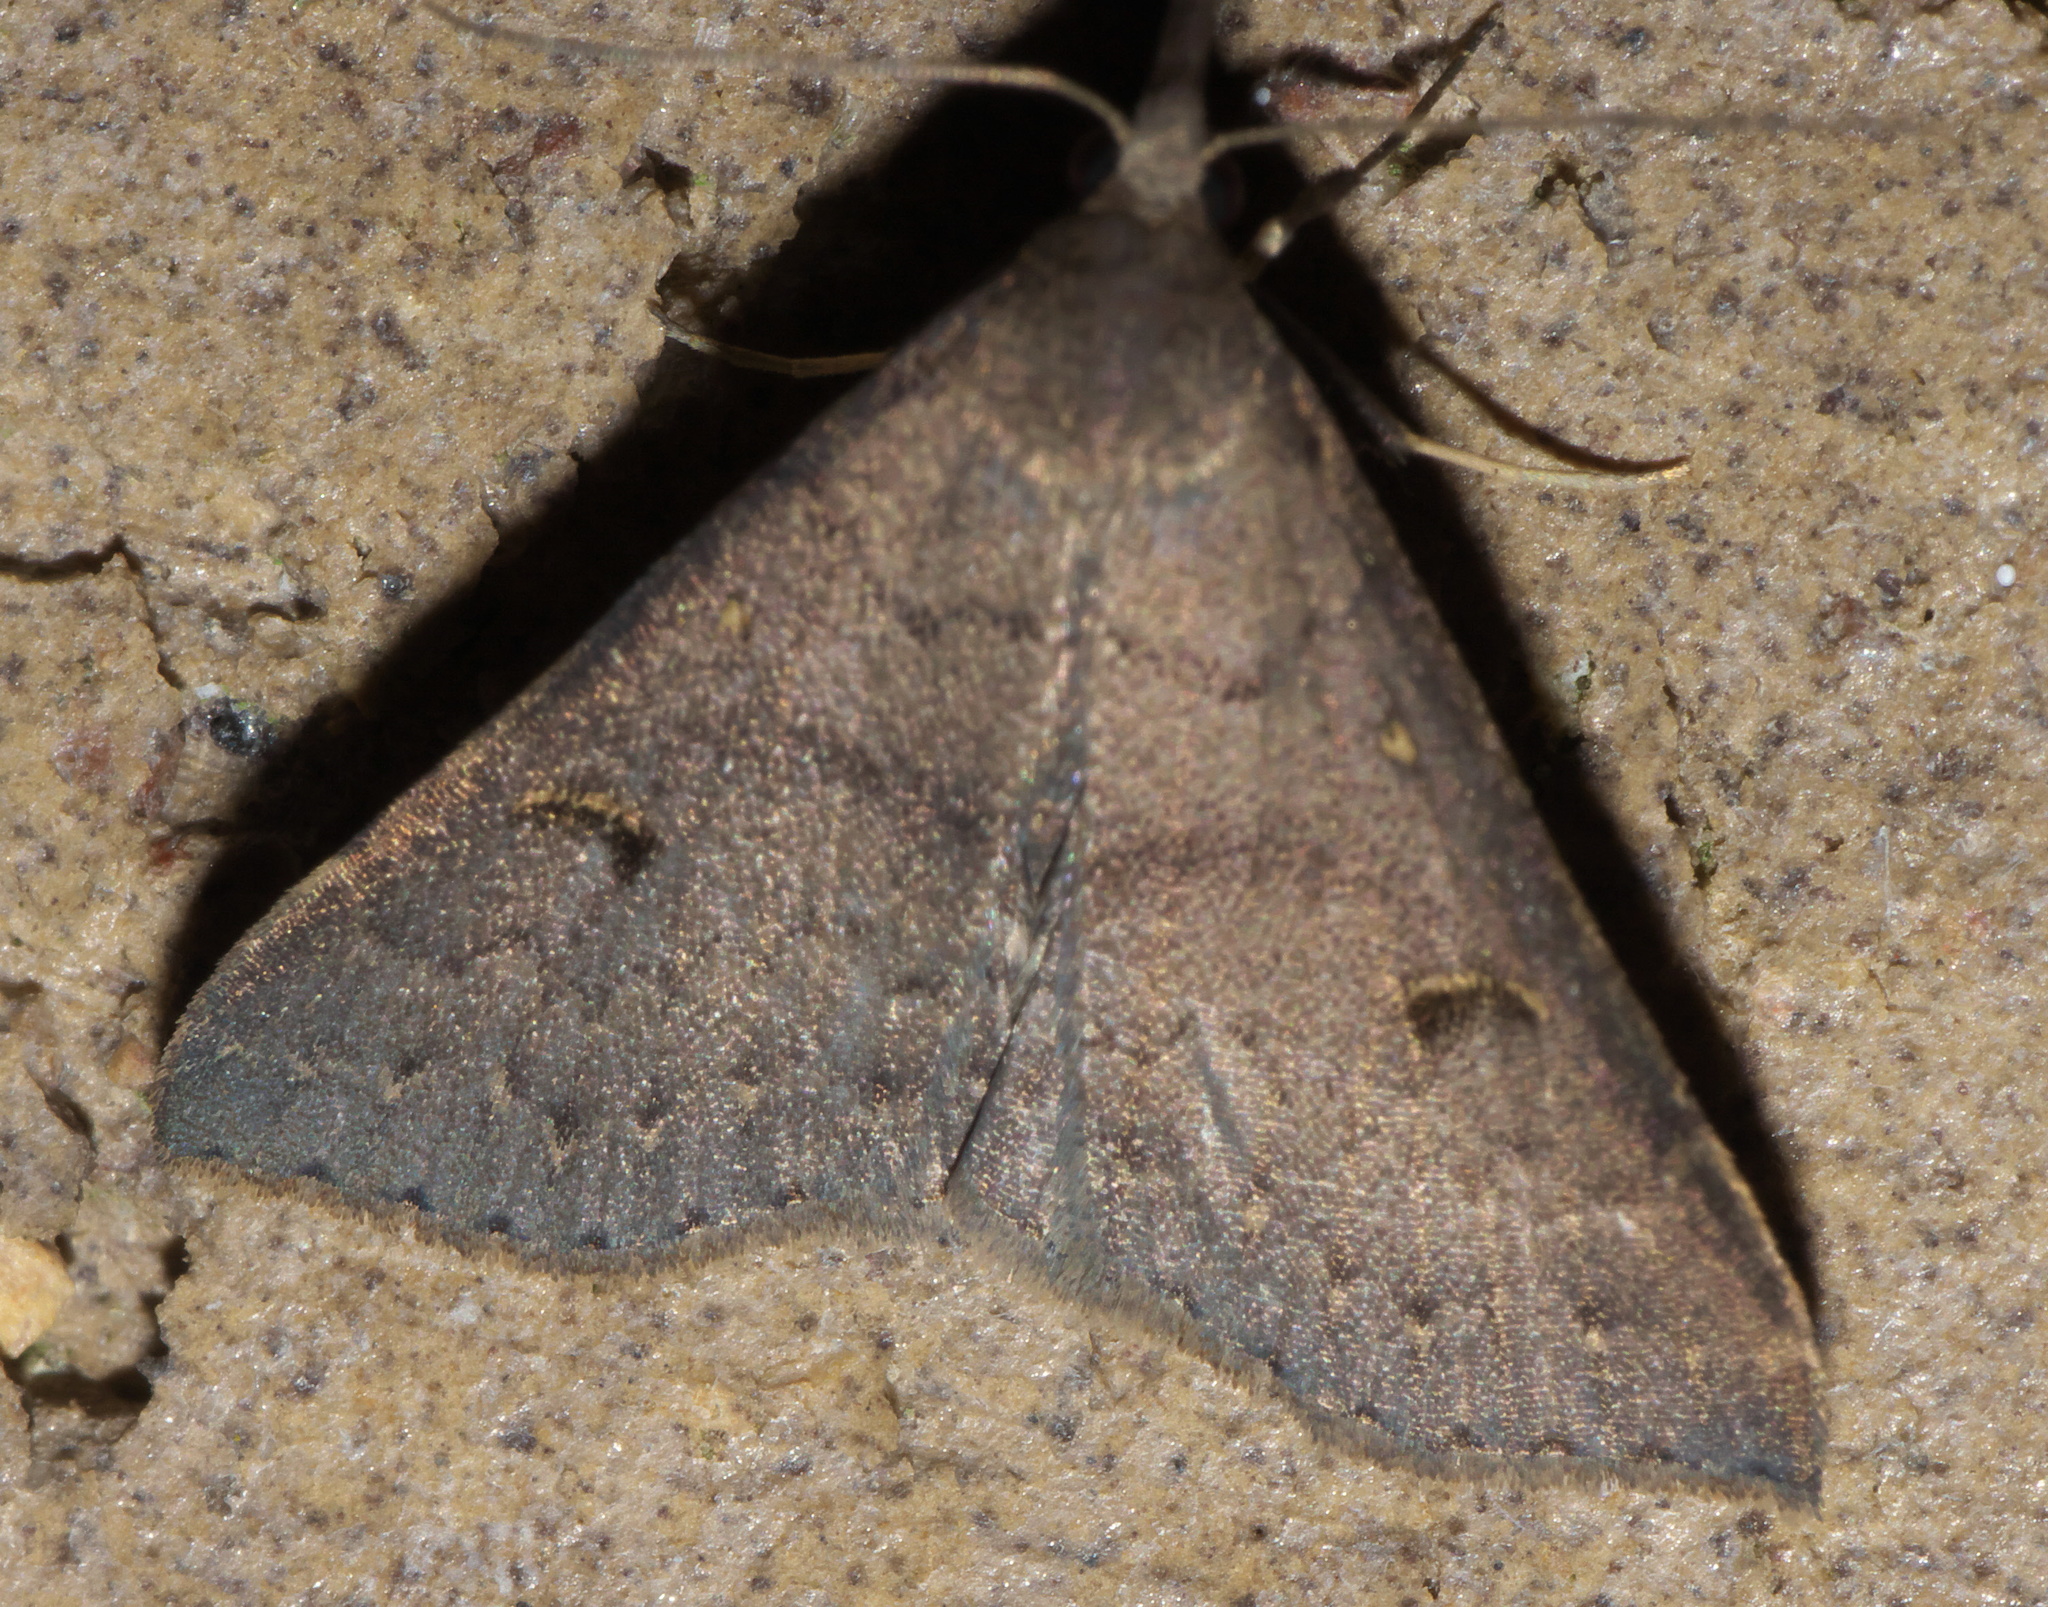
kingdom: Animalia
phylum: Arthropoda
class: Insecta
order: Lepidoptera
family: Erebidae
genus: Renia
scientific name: Renia adspergillus
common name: Speckled renia moth
